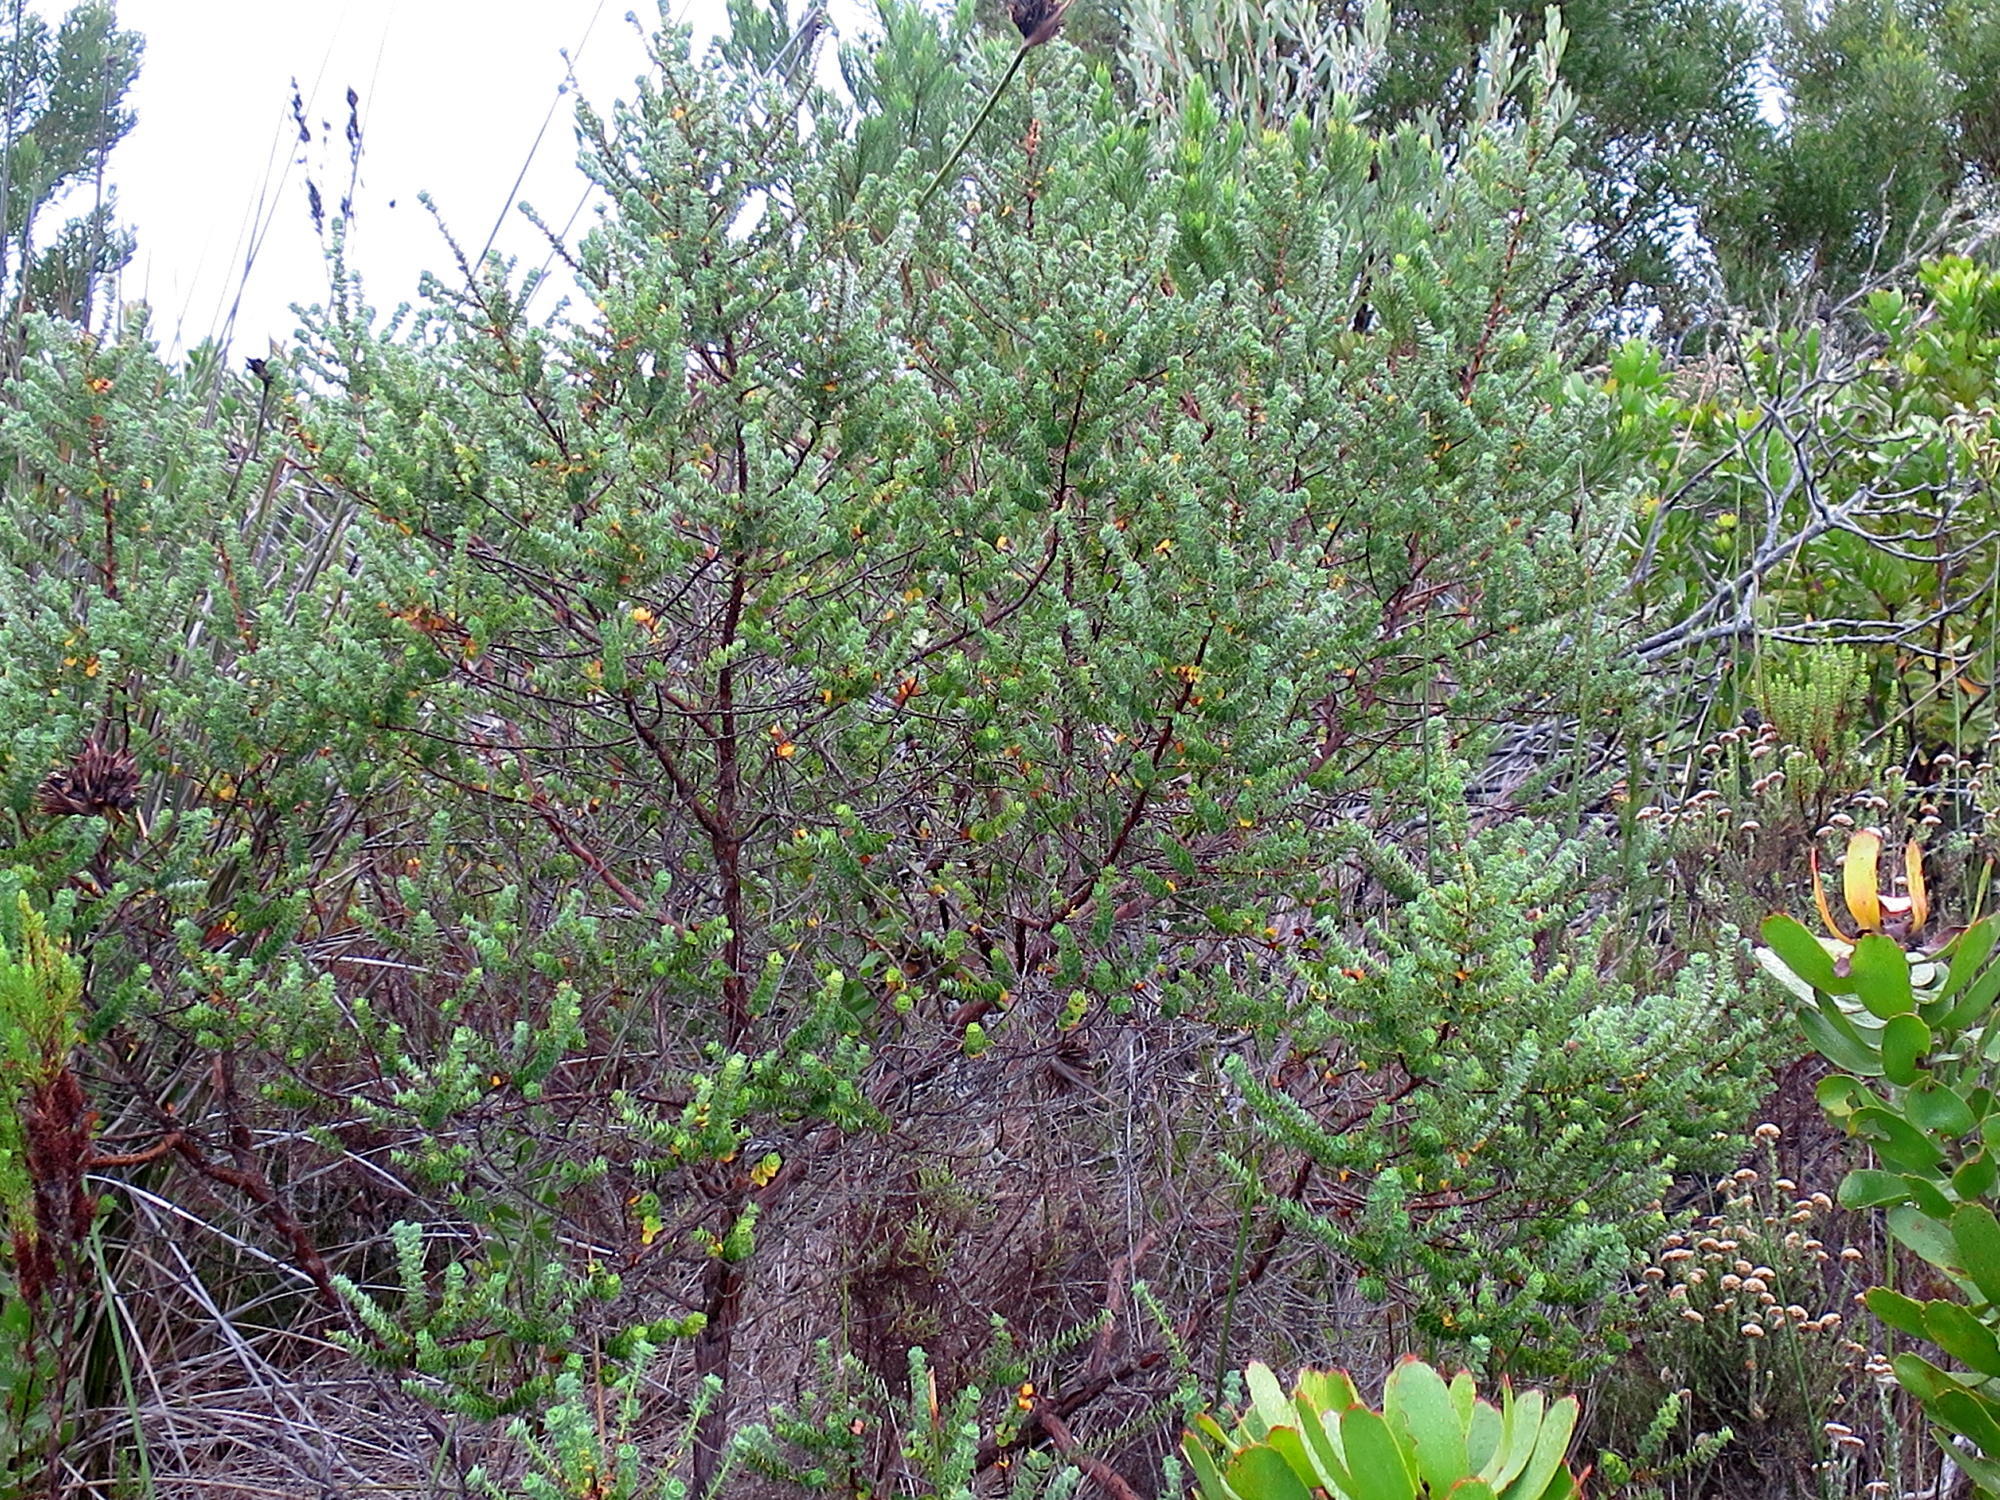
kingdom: Plantae
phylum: Tracheophyta
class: Magnoliopsida
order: Rosales
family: Rosaceae
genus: Cliffortia
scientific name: Cliffortia schlechteri
